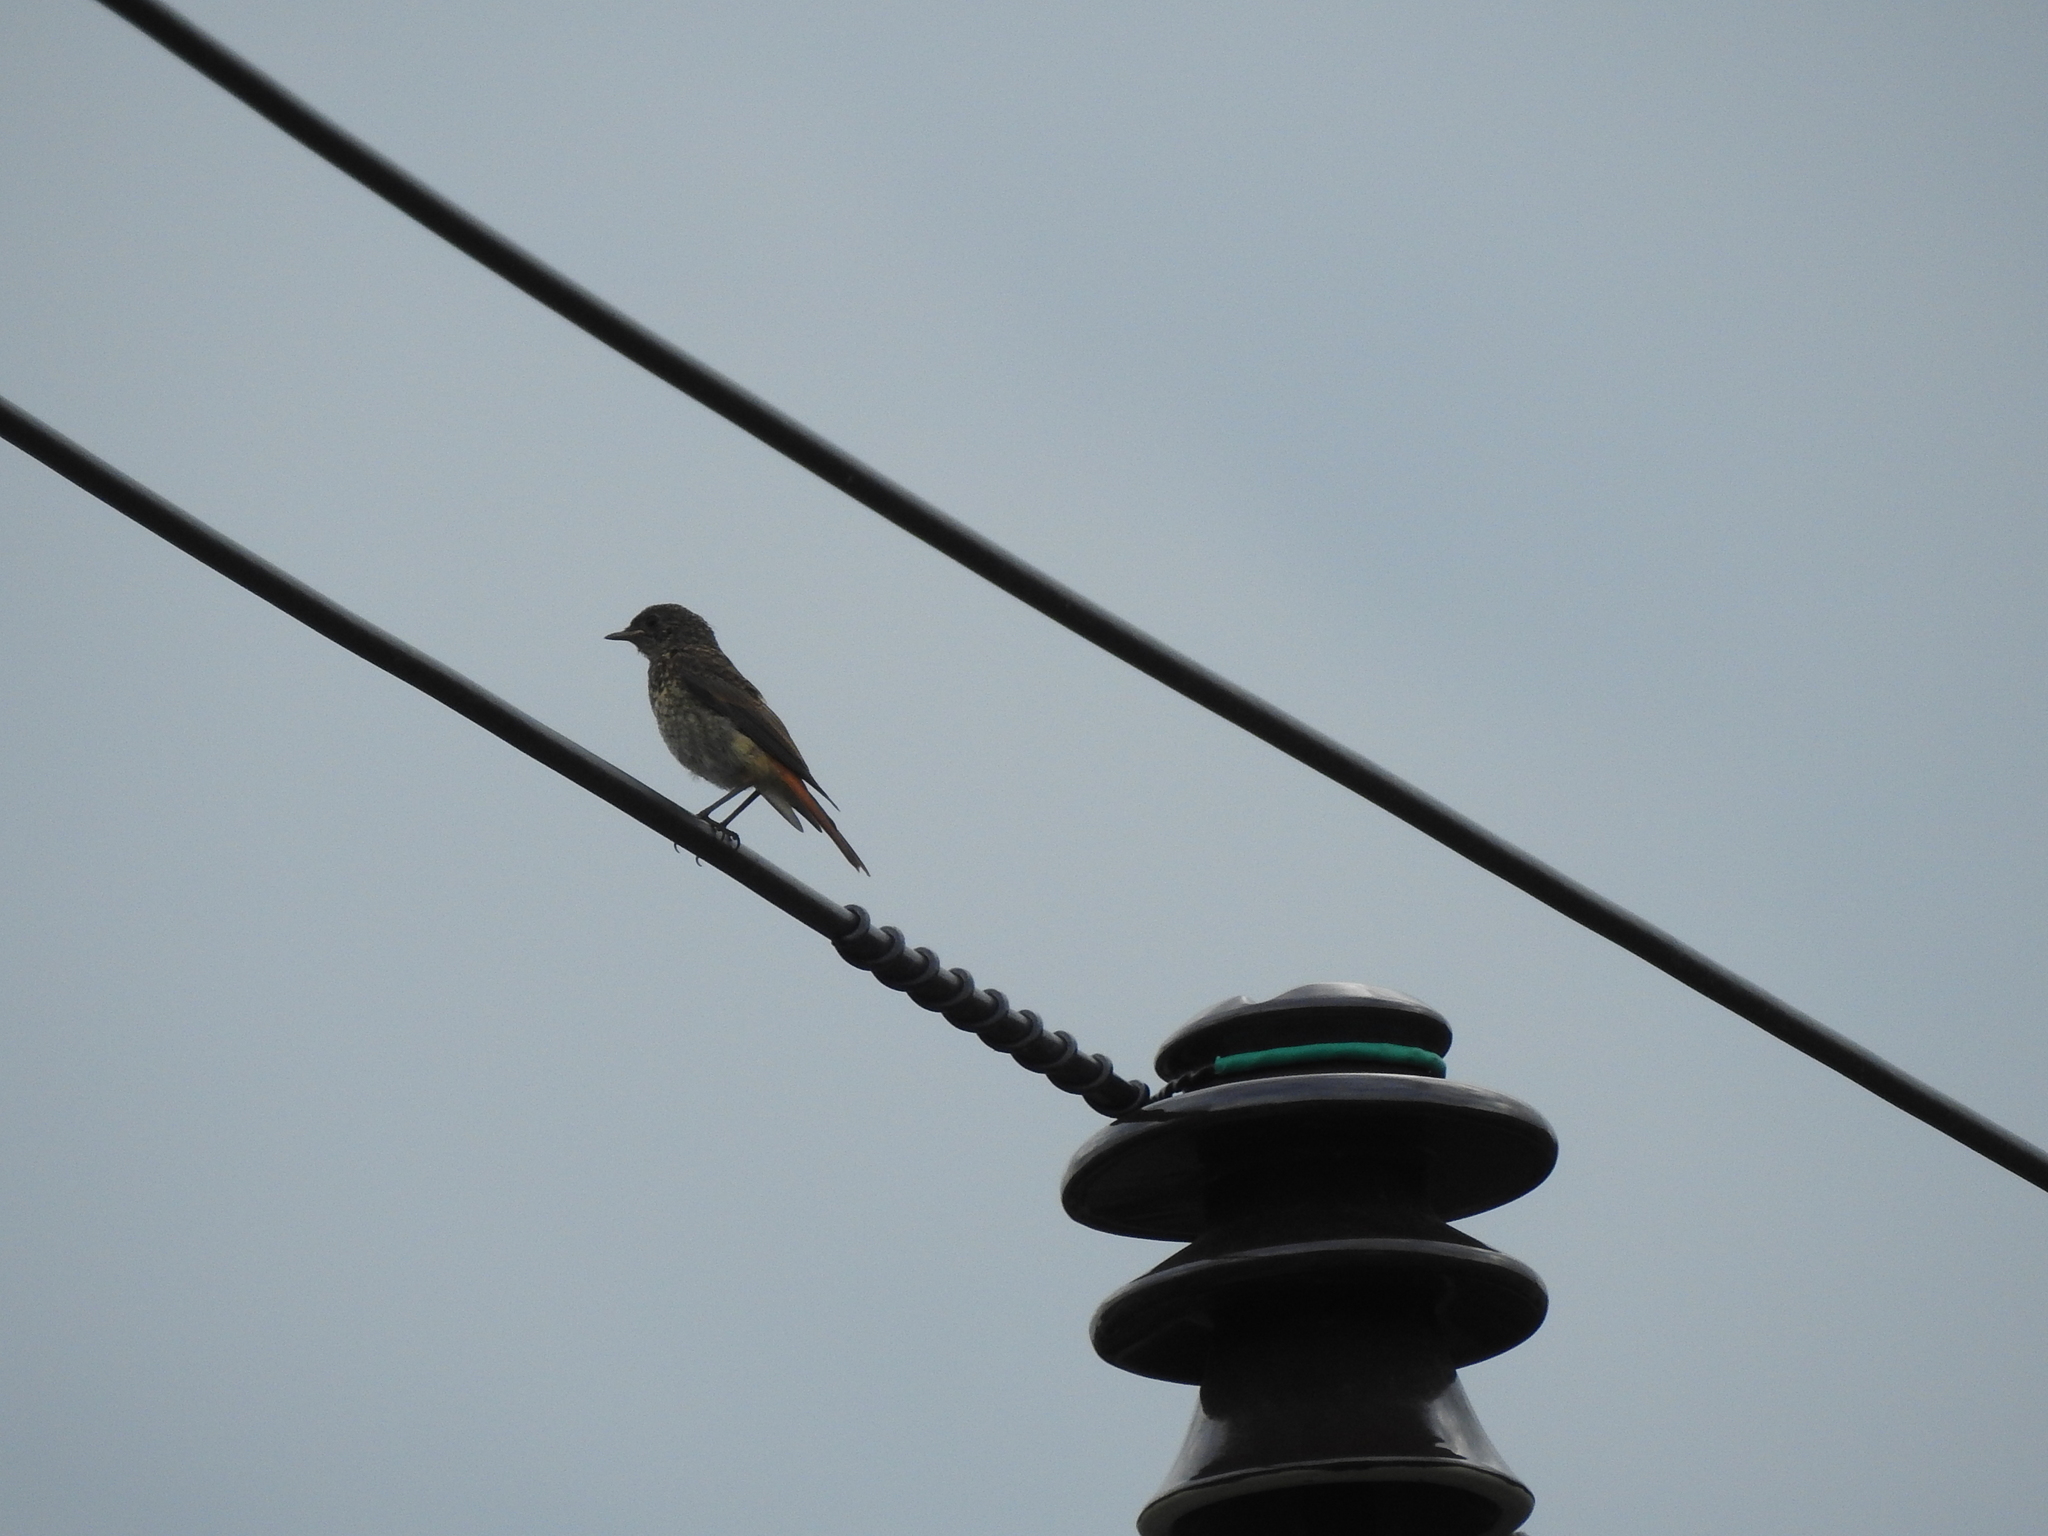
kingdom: Animalia
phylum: Chordata
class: Aves
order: Passeriformes
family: Muscicapidae
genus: Phoenicurus
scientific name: Phoenicurus phoenicurus
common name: Common redstart
